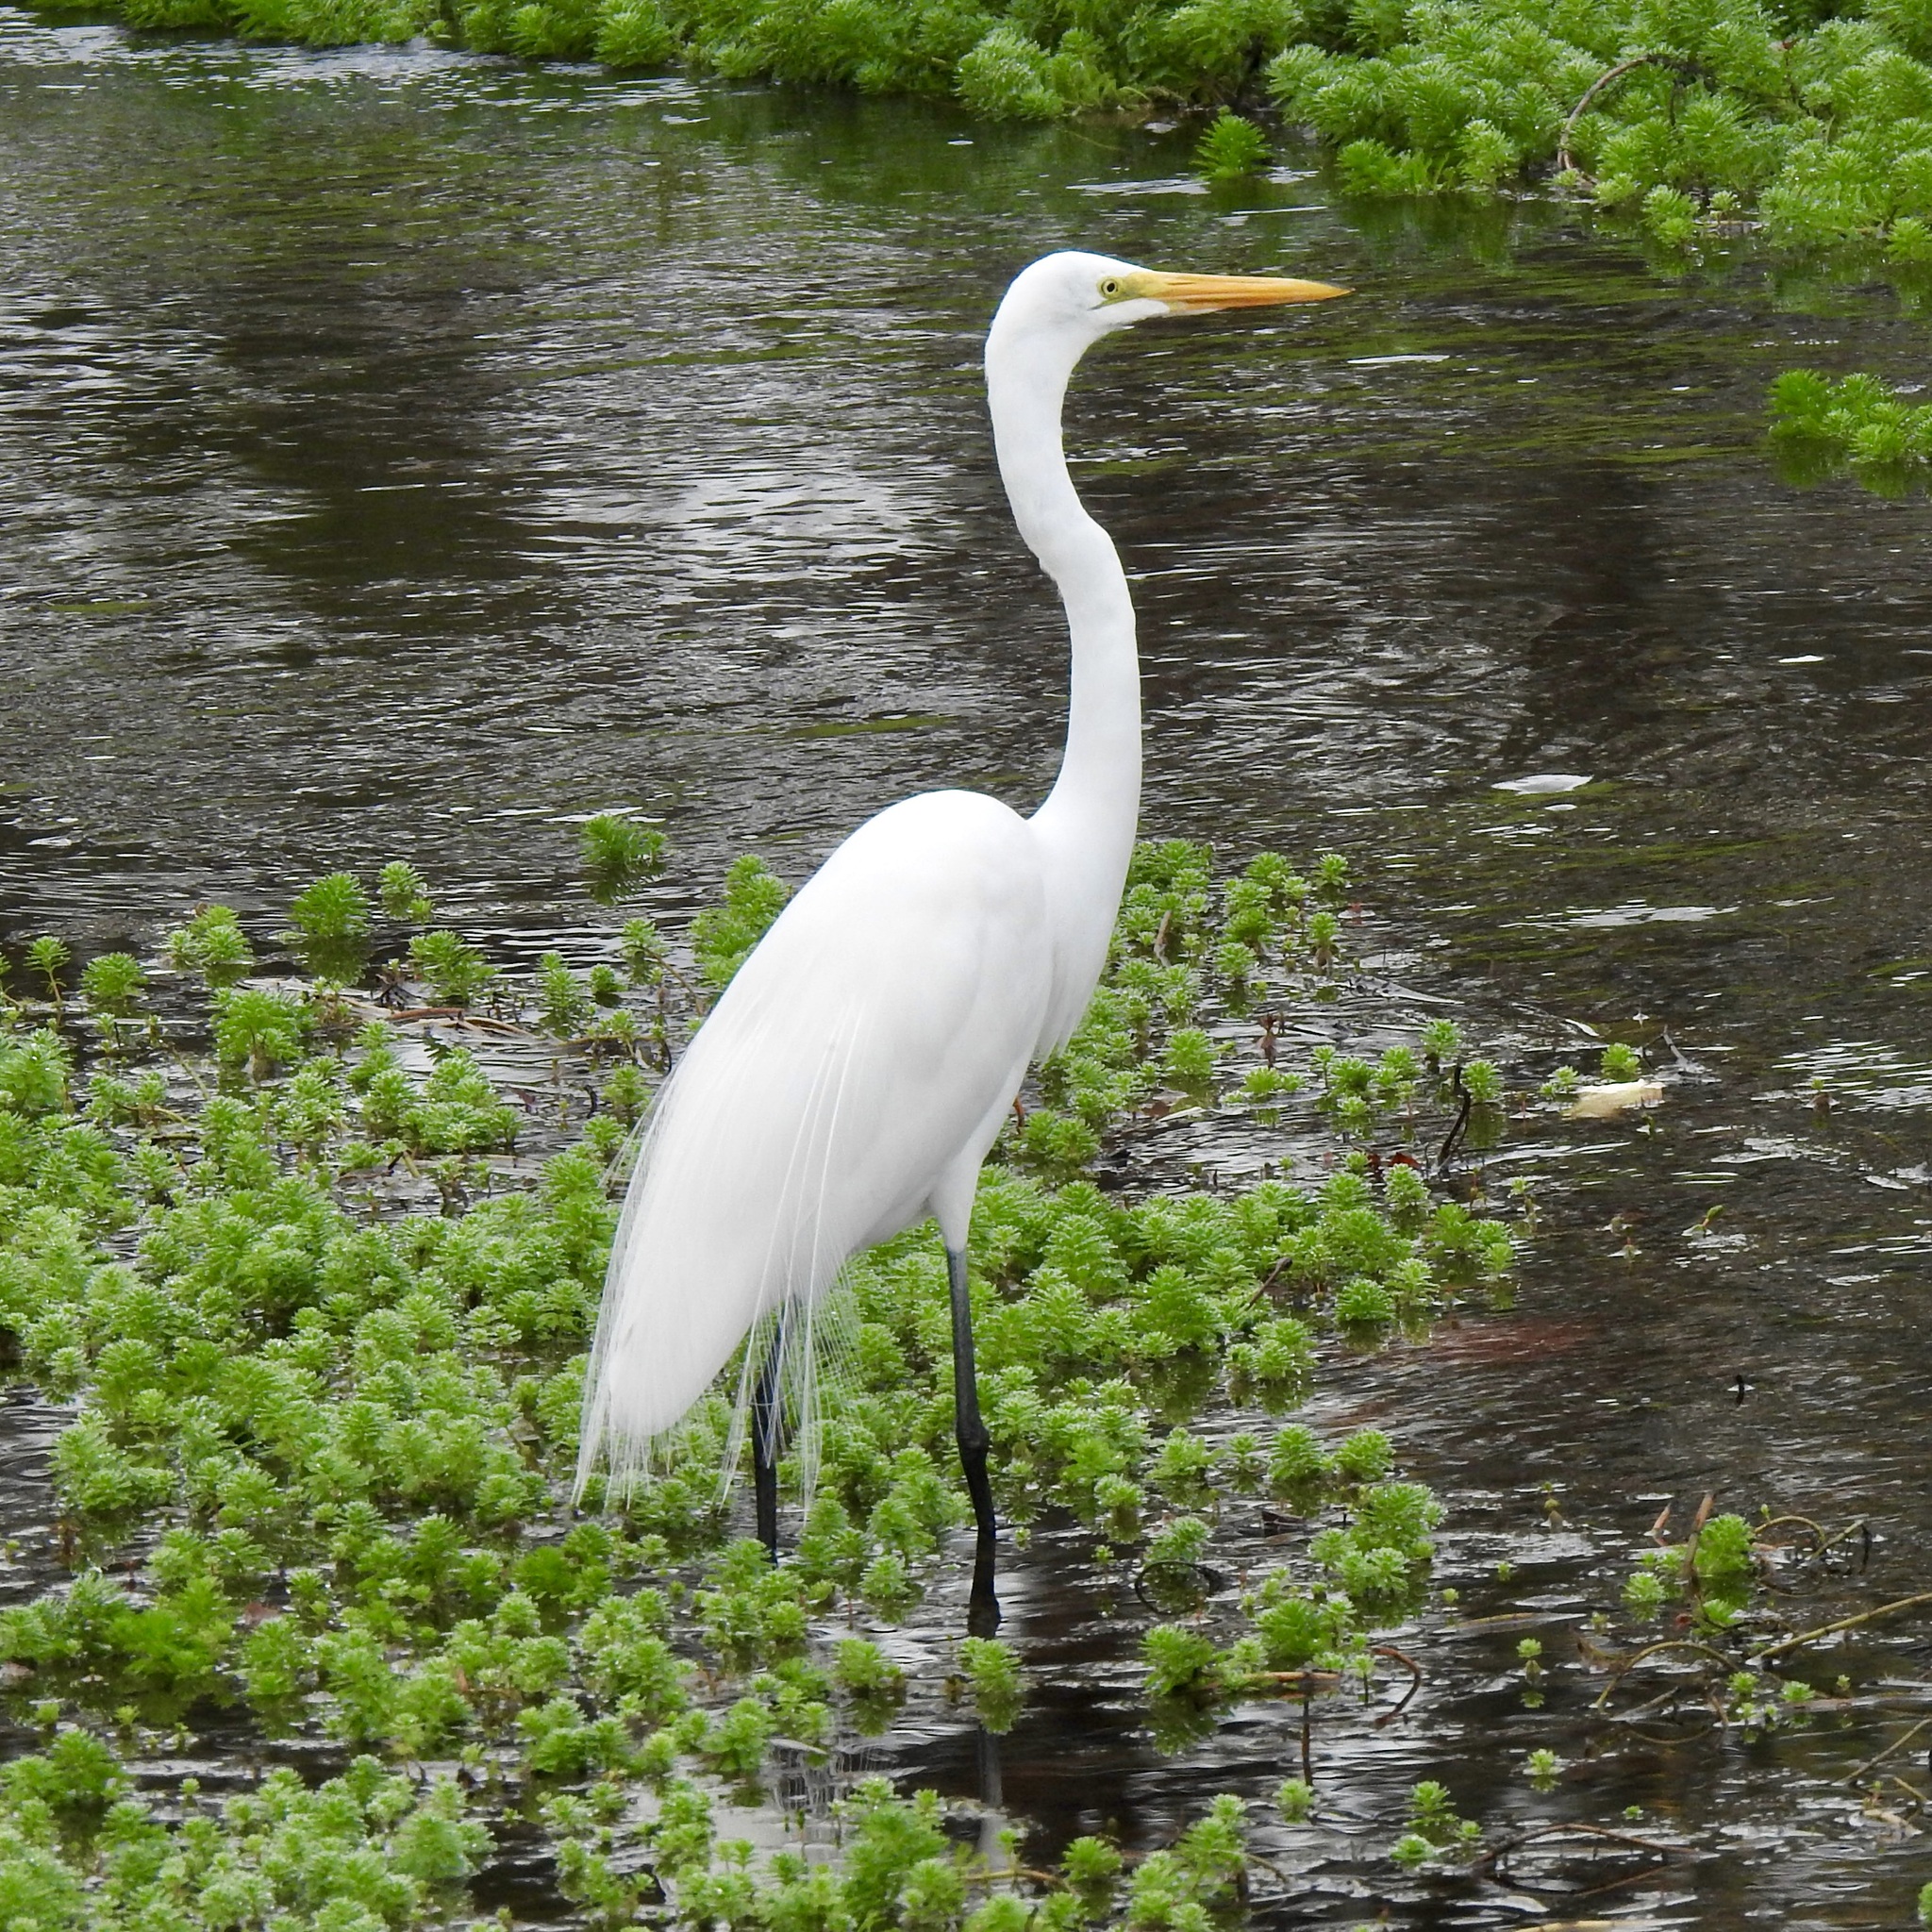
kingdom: Animalia
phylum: Chordata
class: Aves
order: Pelecaniformes
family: Ardeidae
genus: Ardea
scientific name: Ardea alba
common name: Great egret
